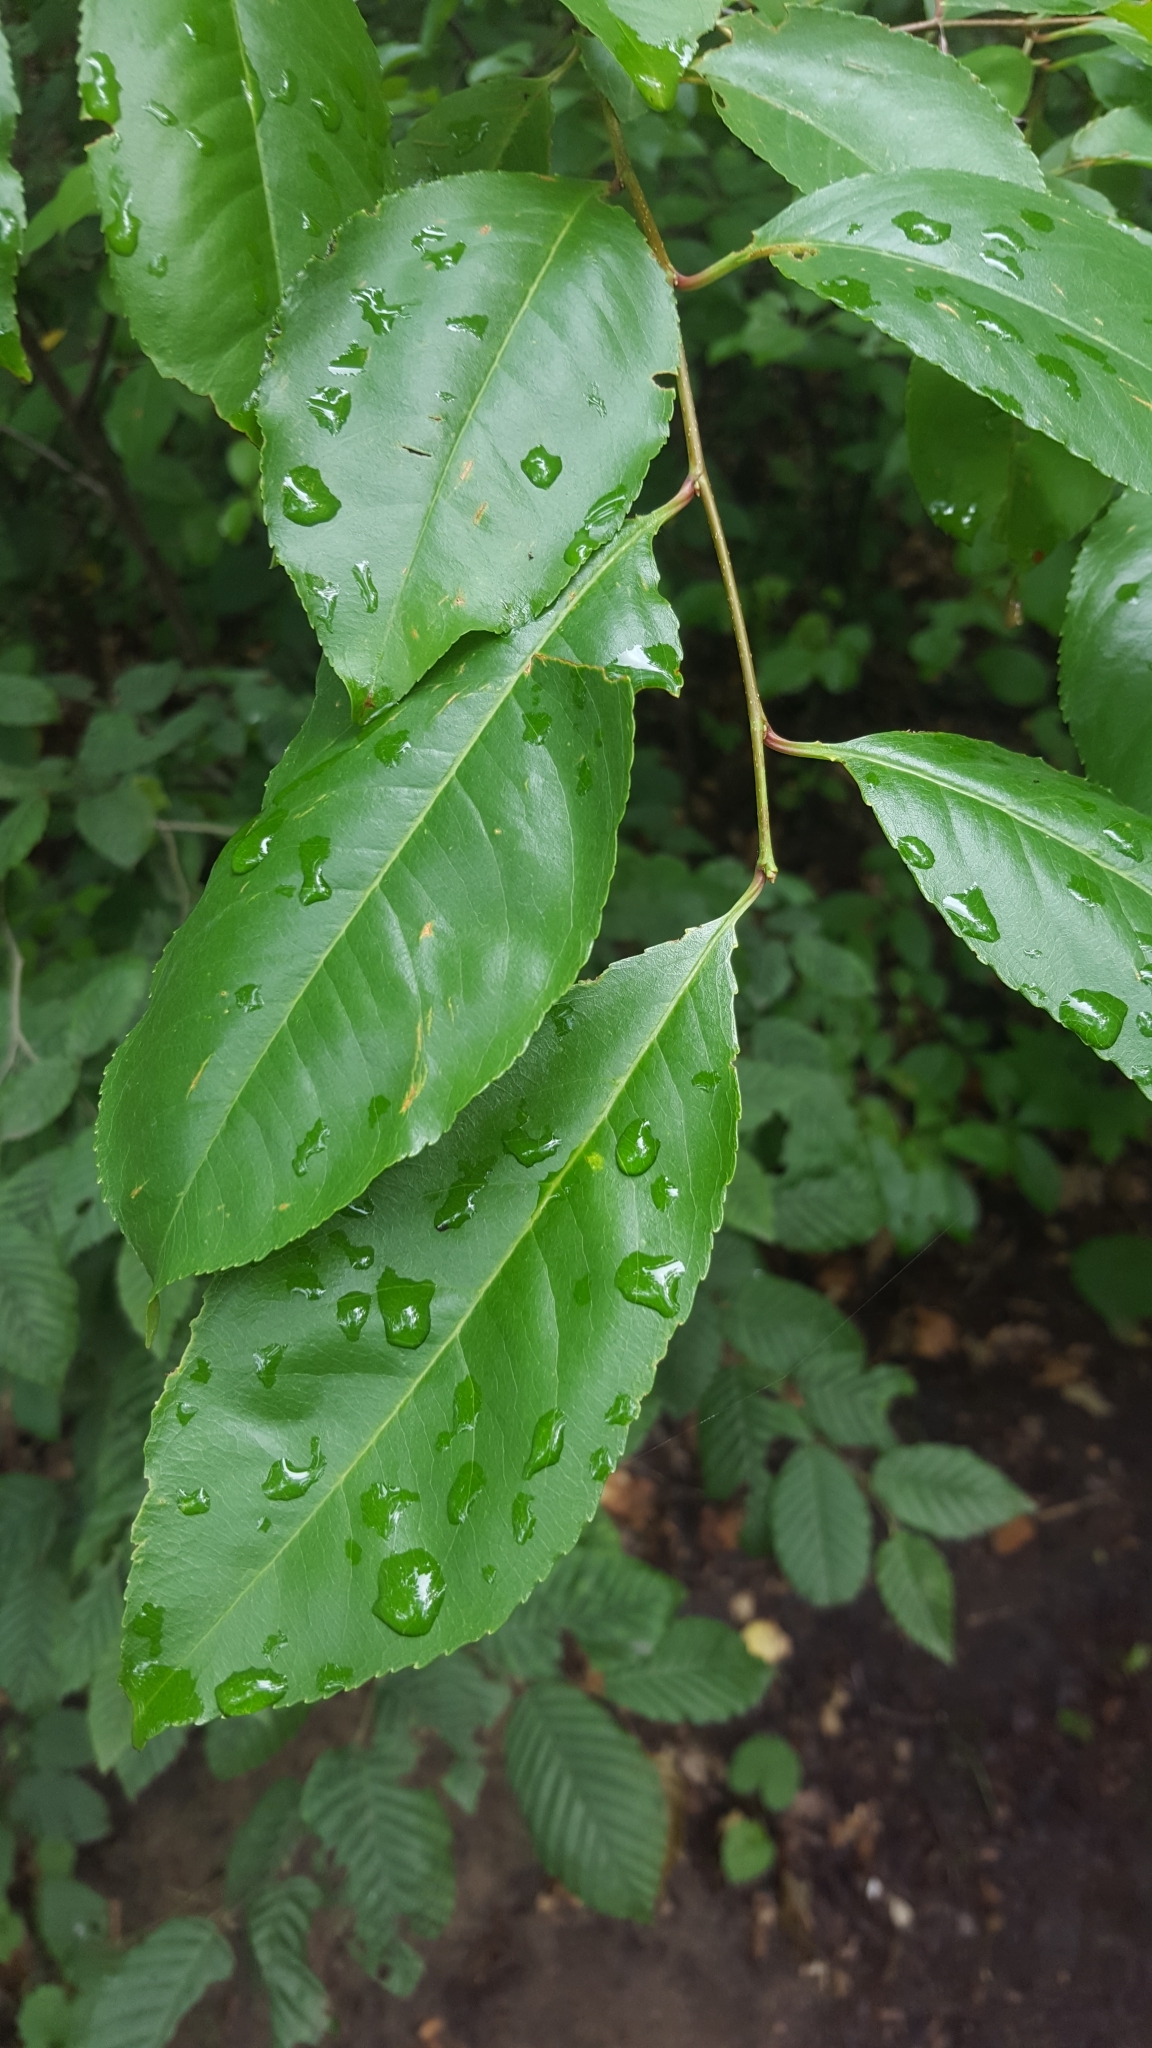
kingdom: Plantae
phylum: Tracheophyta
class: Magnoliopsida
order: Rosales
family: Rosaceae
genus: Prunus
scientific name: Prunus serotina
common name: Black cherry
